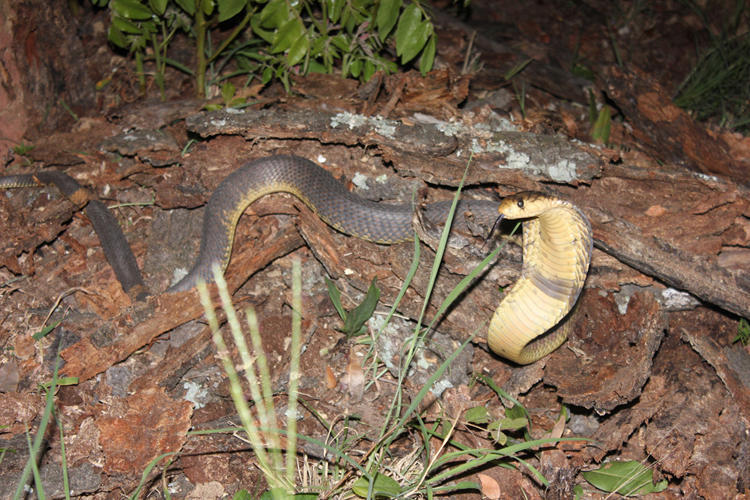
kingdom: Animalia
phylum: Chordata
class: Squamata
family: Elapidae
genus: Naja
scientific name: Naja annulifera
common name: Snouted cobra
